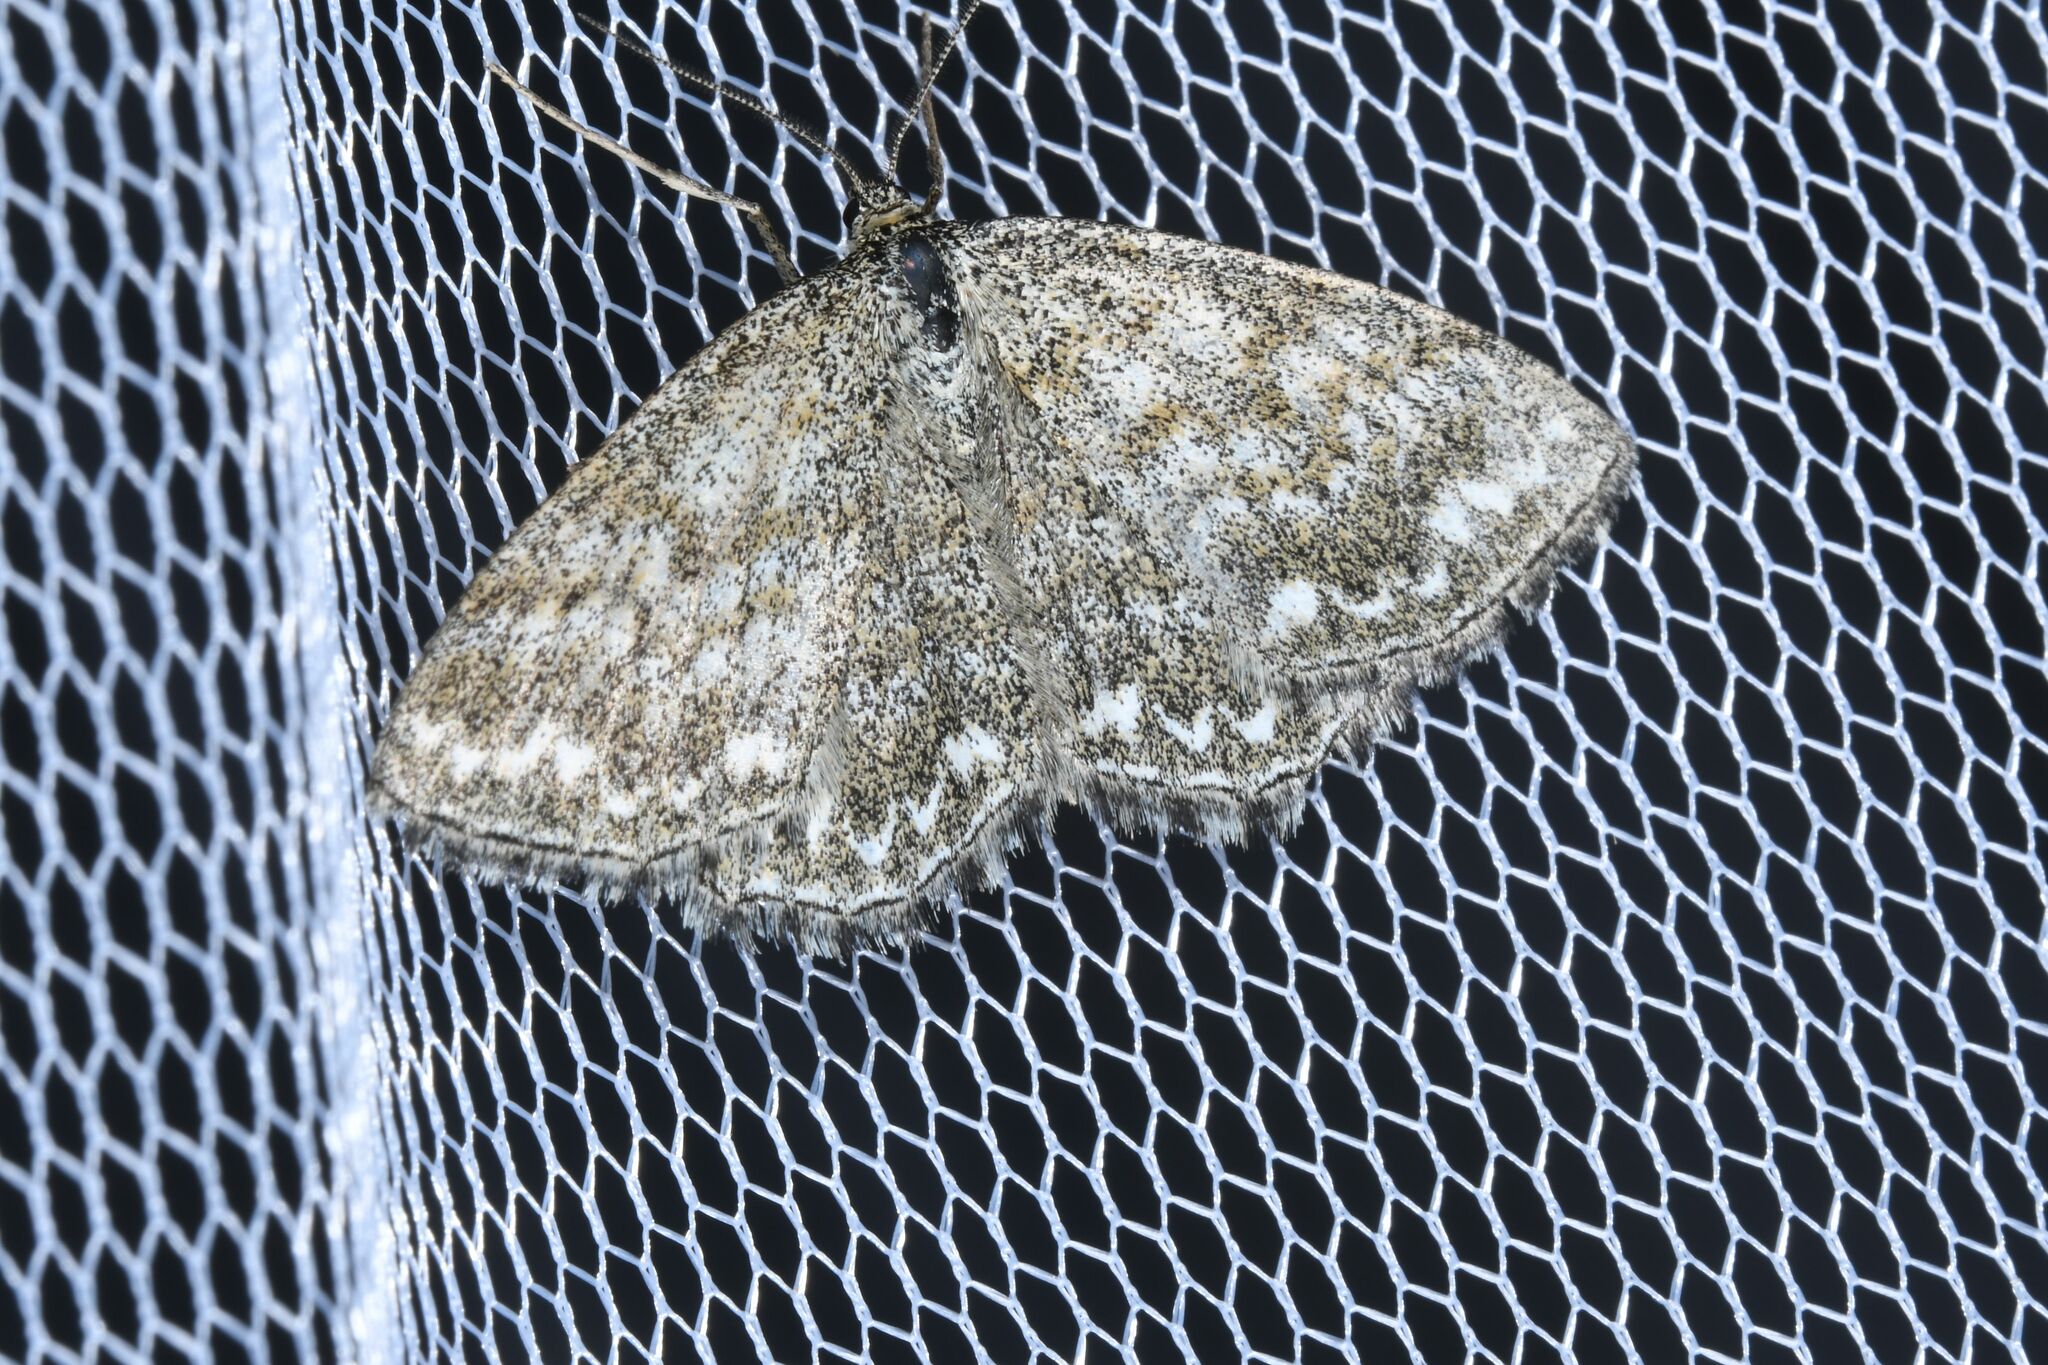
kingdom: Animalia
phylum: Arthropoda
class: Insecta
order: Lepidoptera
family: Geometridae
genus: Scopula
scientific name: Scopula immorata
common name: Lewes wave
